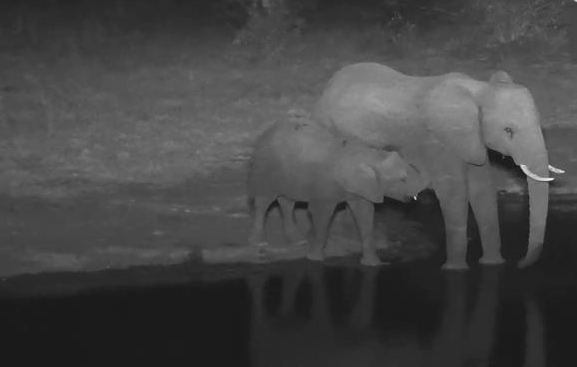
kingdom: Animalia
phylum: Chordata
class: Mammalia
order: Proboscidea
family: Elephantidae
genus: Loxodonta
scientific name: Loxodonta africana
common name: African elephant
